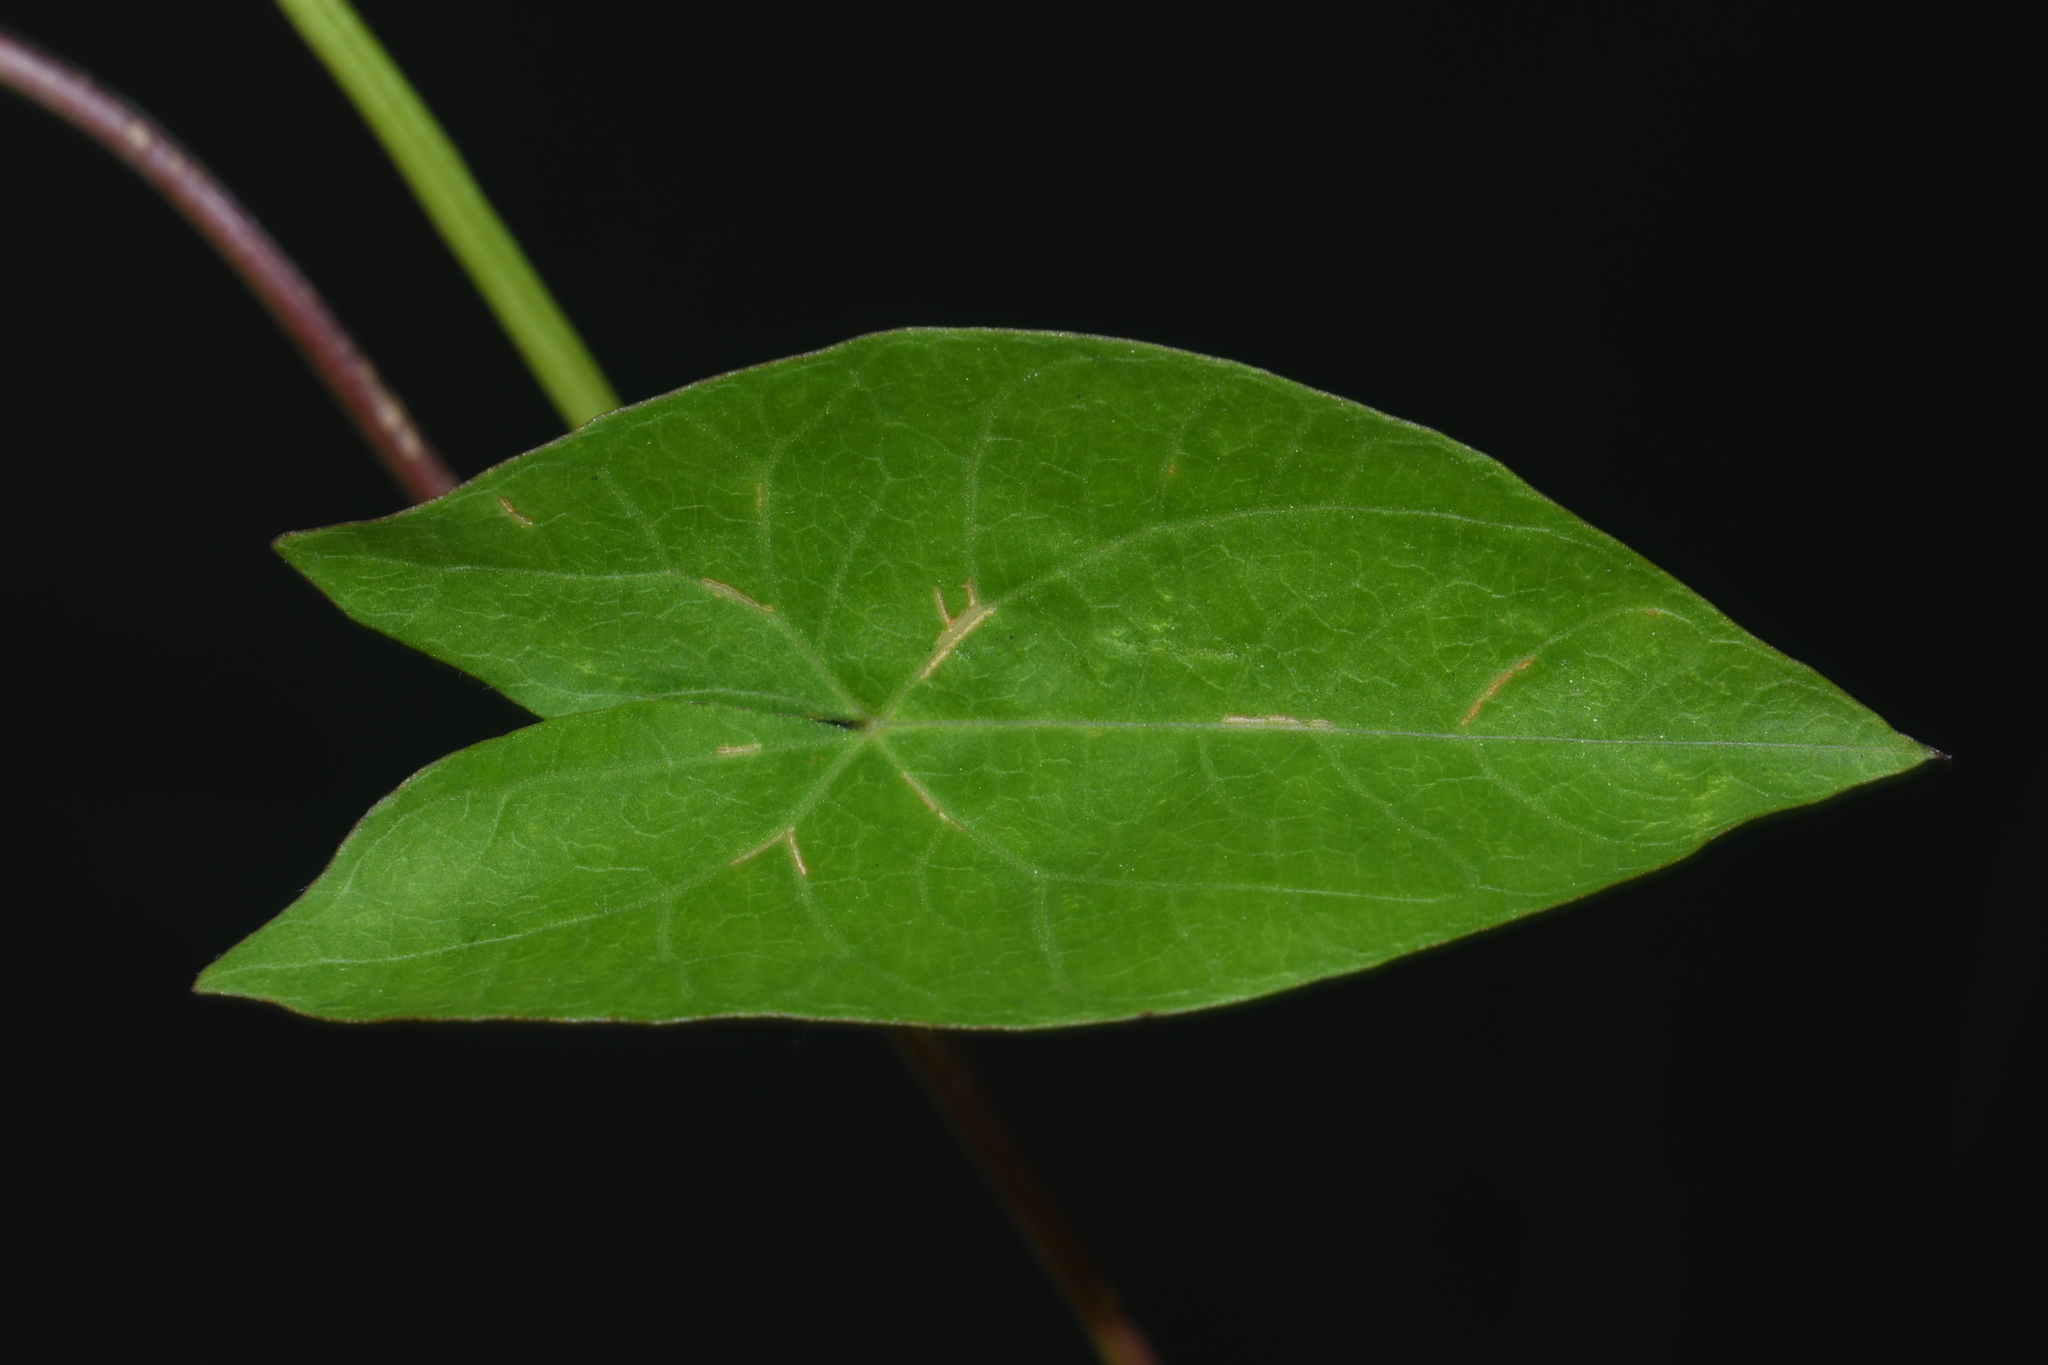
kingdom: Plantae
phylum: Tracheophyta
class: Magnoliopsida
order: Solanales
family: Convolvulaceae
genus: Calystegia
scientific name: Calystegia sepium
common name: Hedge bindweed
